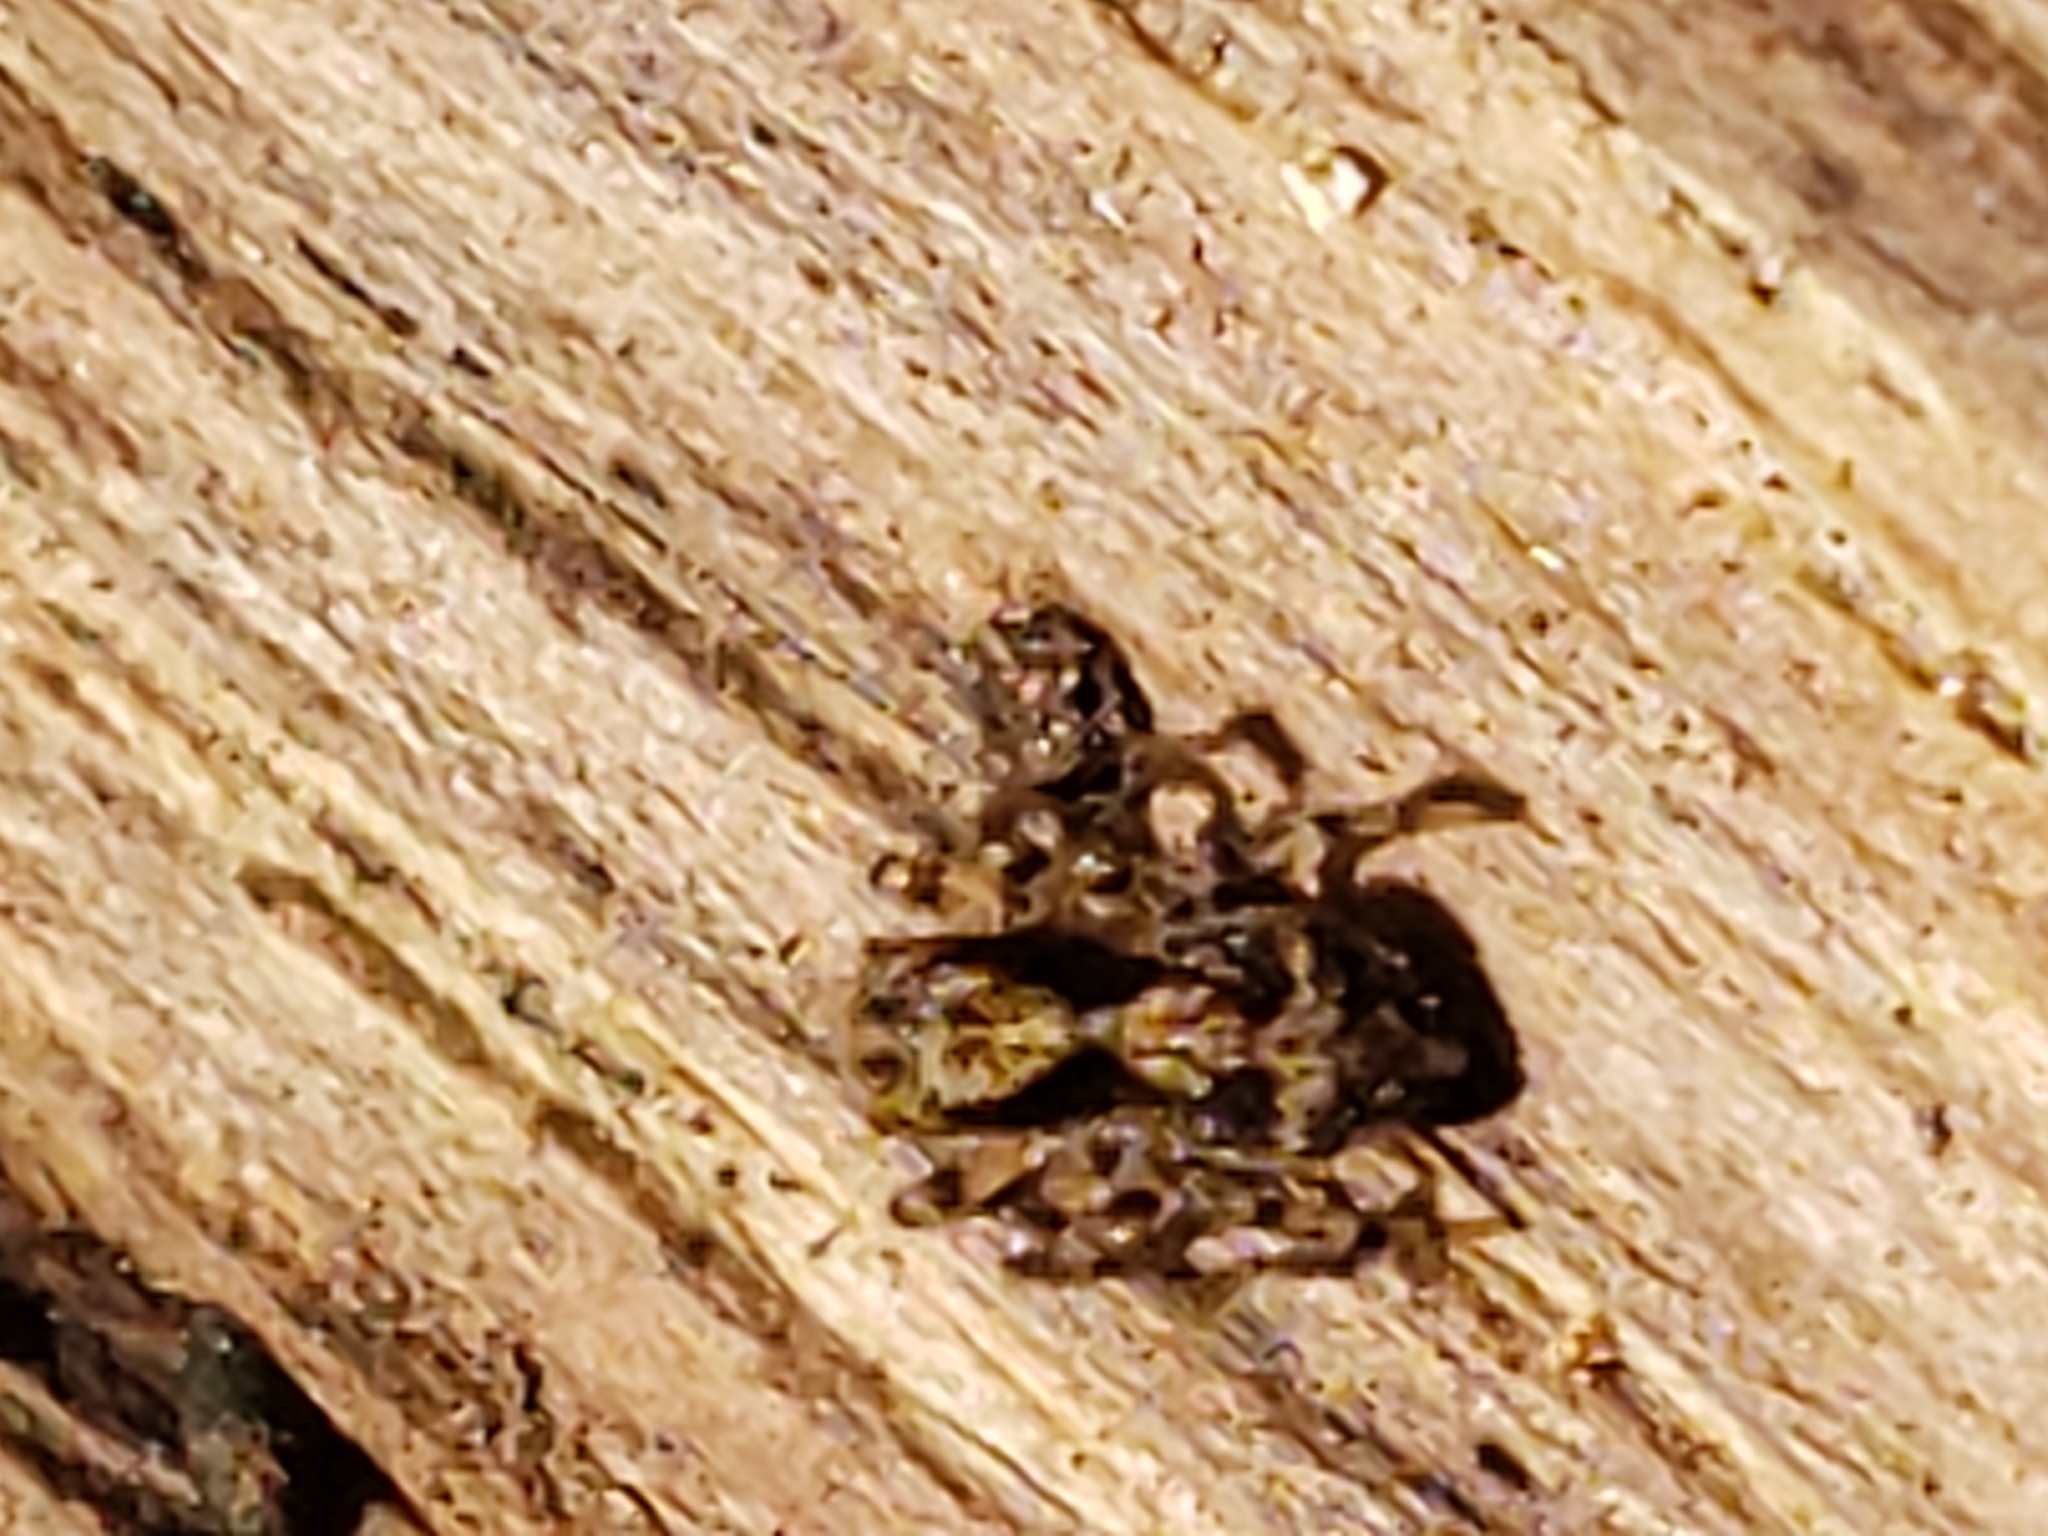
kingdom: Animalia
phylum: Arthropoda
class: Arachnida
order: Araneae
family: Salticidae
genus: Naphrys
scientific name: Naphrys pulex
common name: Flea jumping spider
